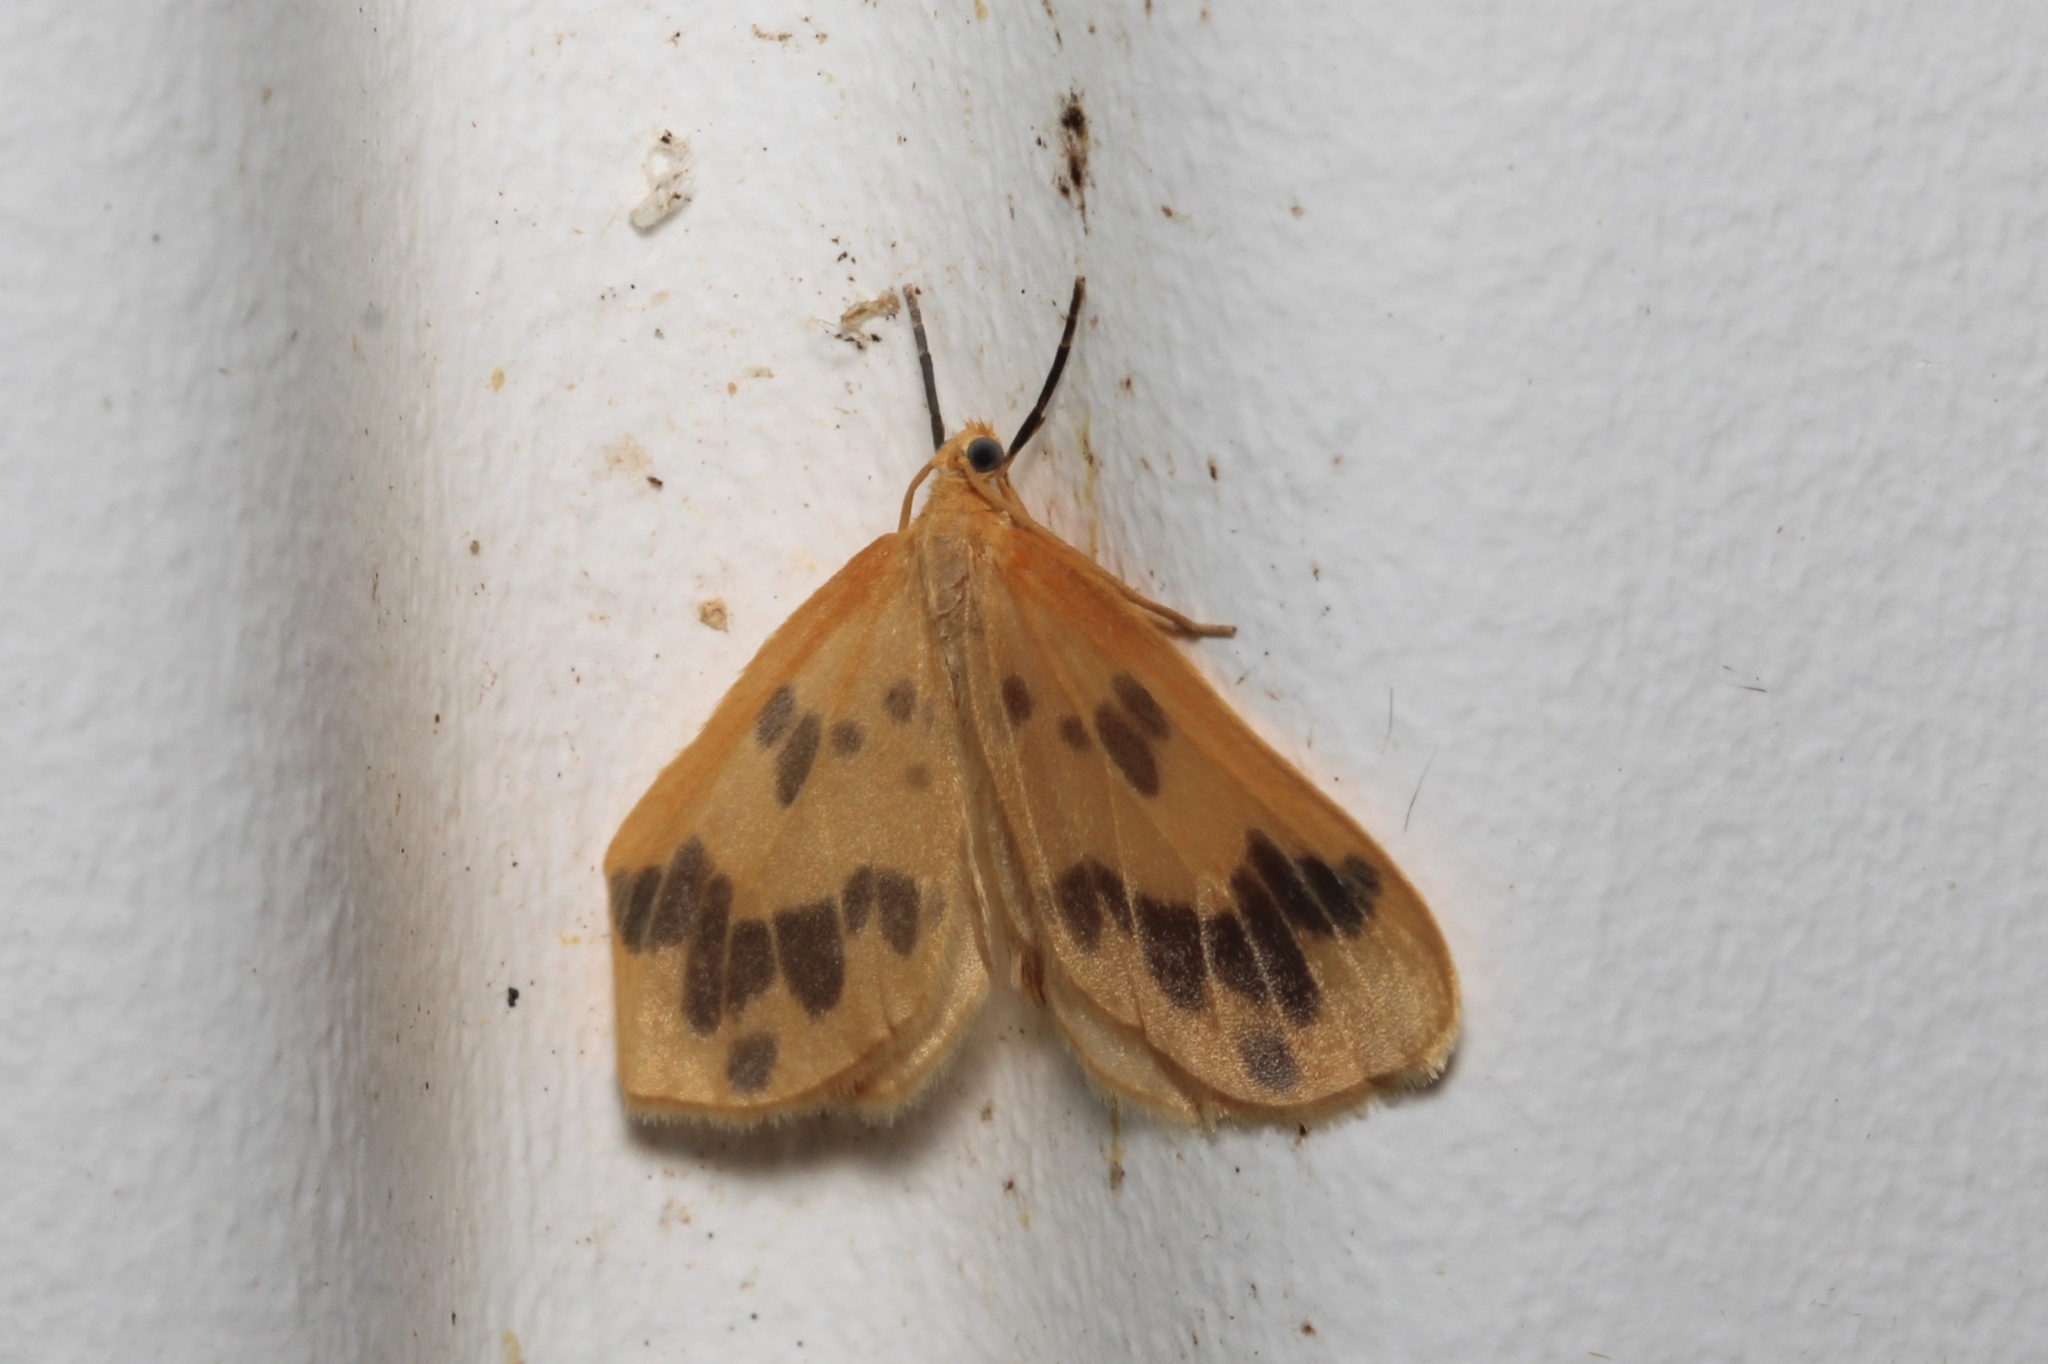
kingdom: Animalia
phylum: Arthropoda
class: Insecta
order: Lepidoptera
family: Geometridae
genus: Eubaphe
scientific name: Eubaphe mendica
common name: Beggar
